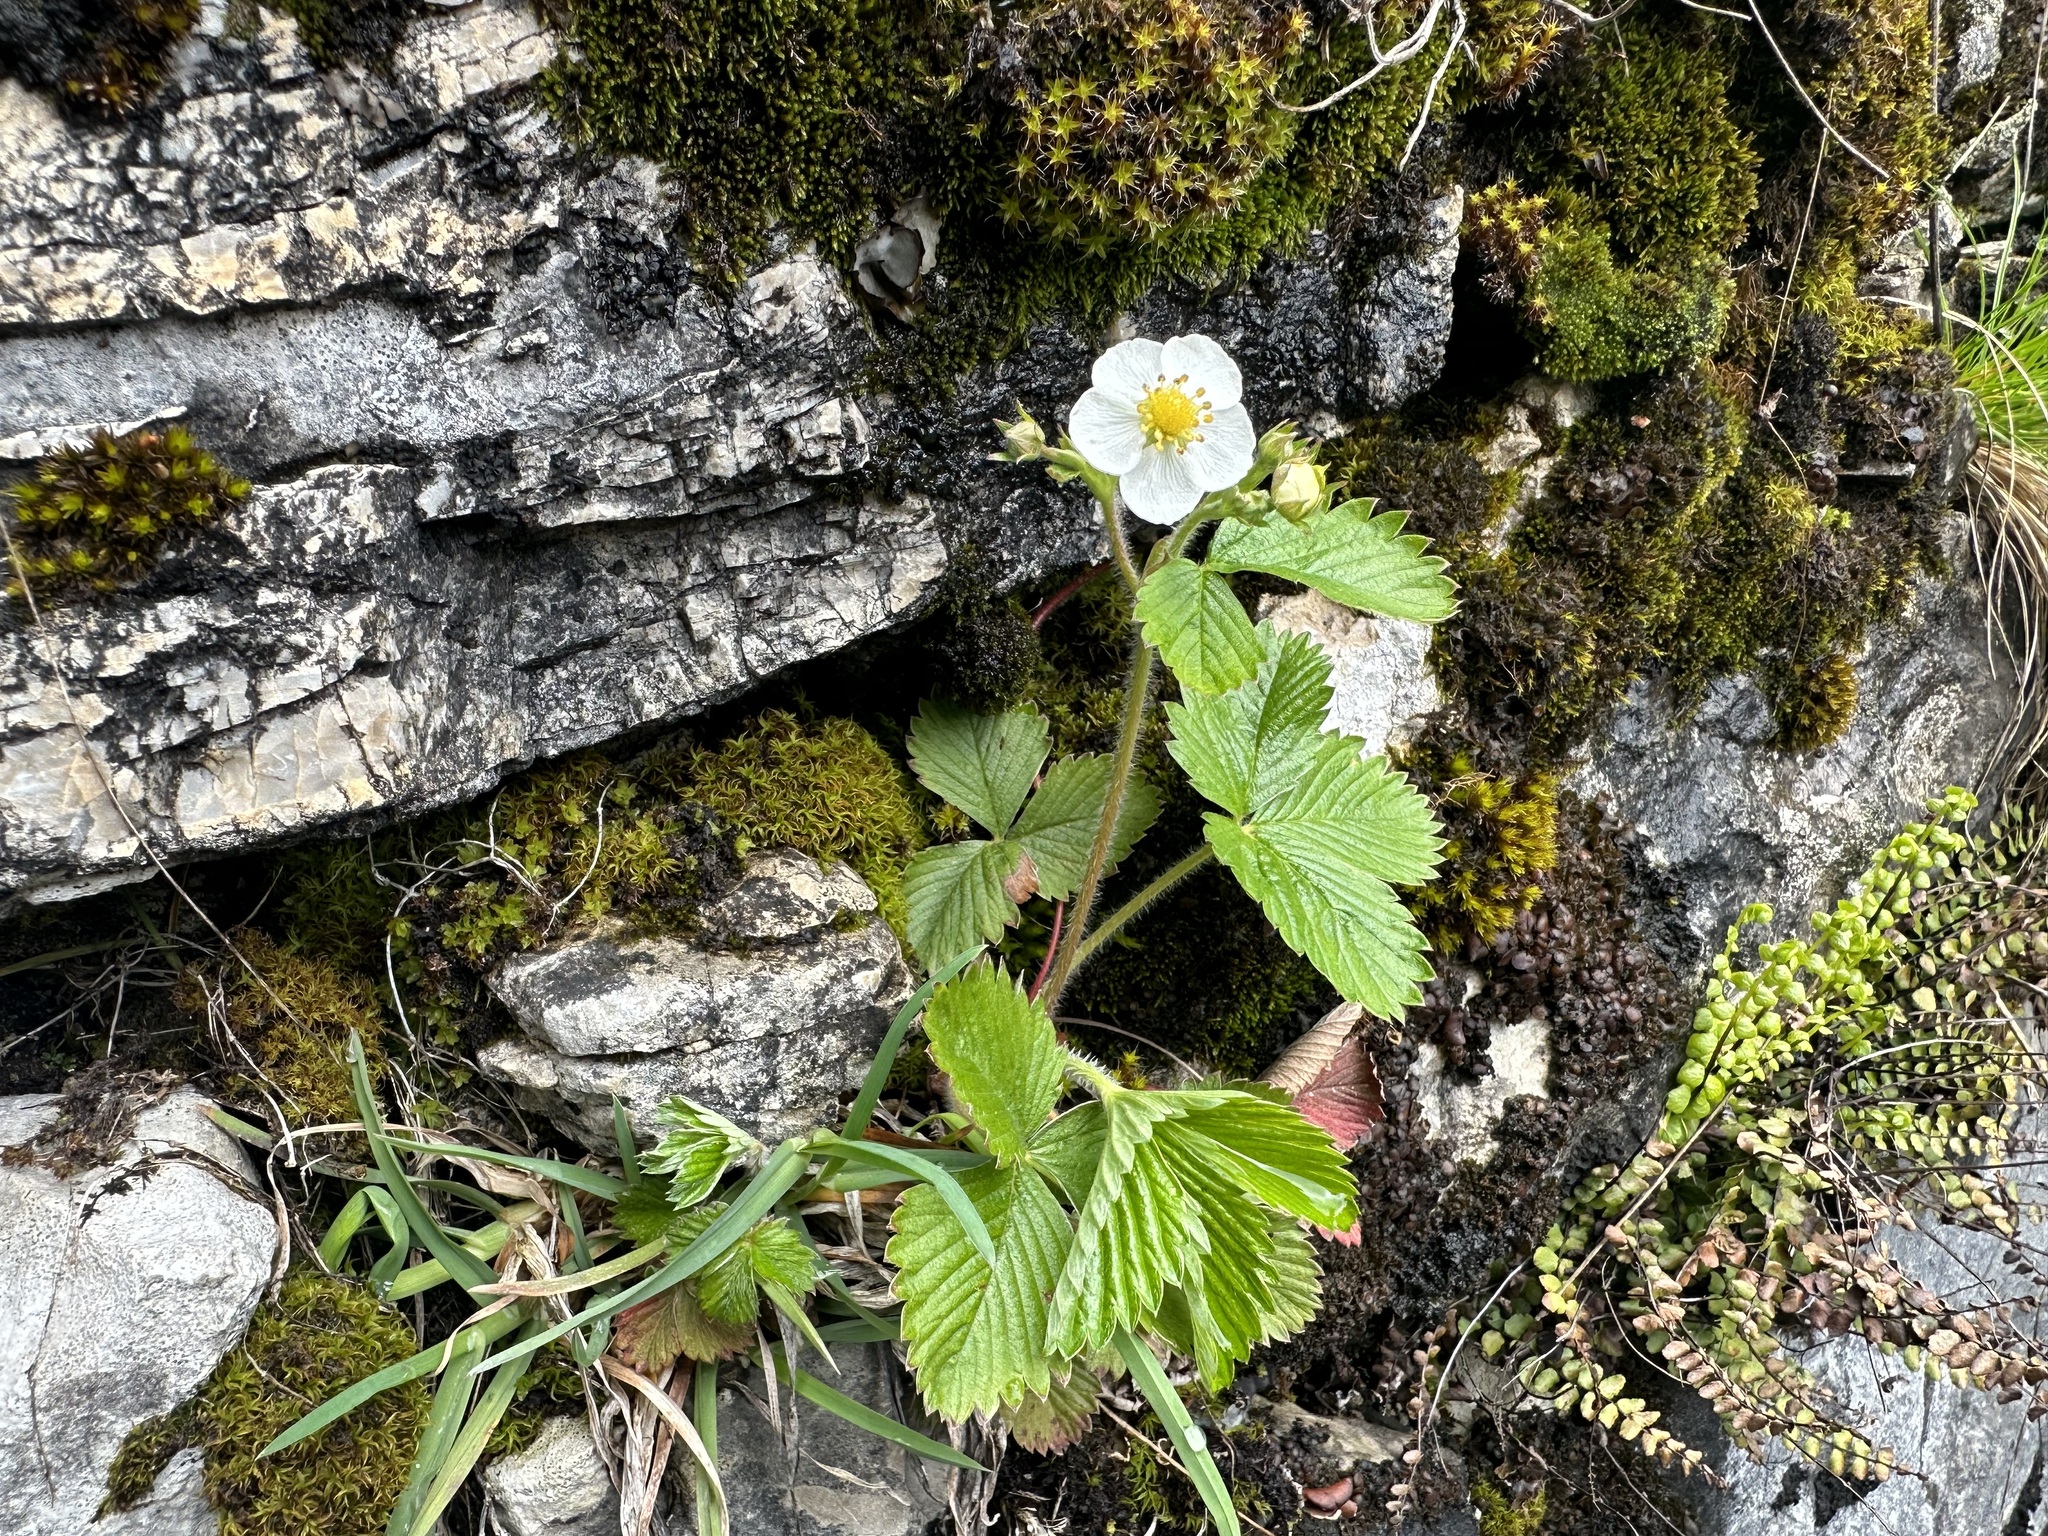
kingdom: Plantae
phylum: Tracheophyta
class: Magnoliopsida
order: Rosales
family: Rosaceae
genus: Fragaria
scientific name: Fragaria vesca
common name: Wild strawberry
